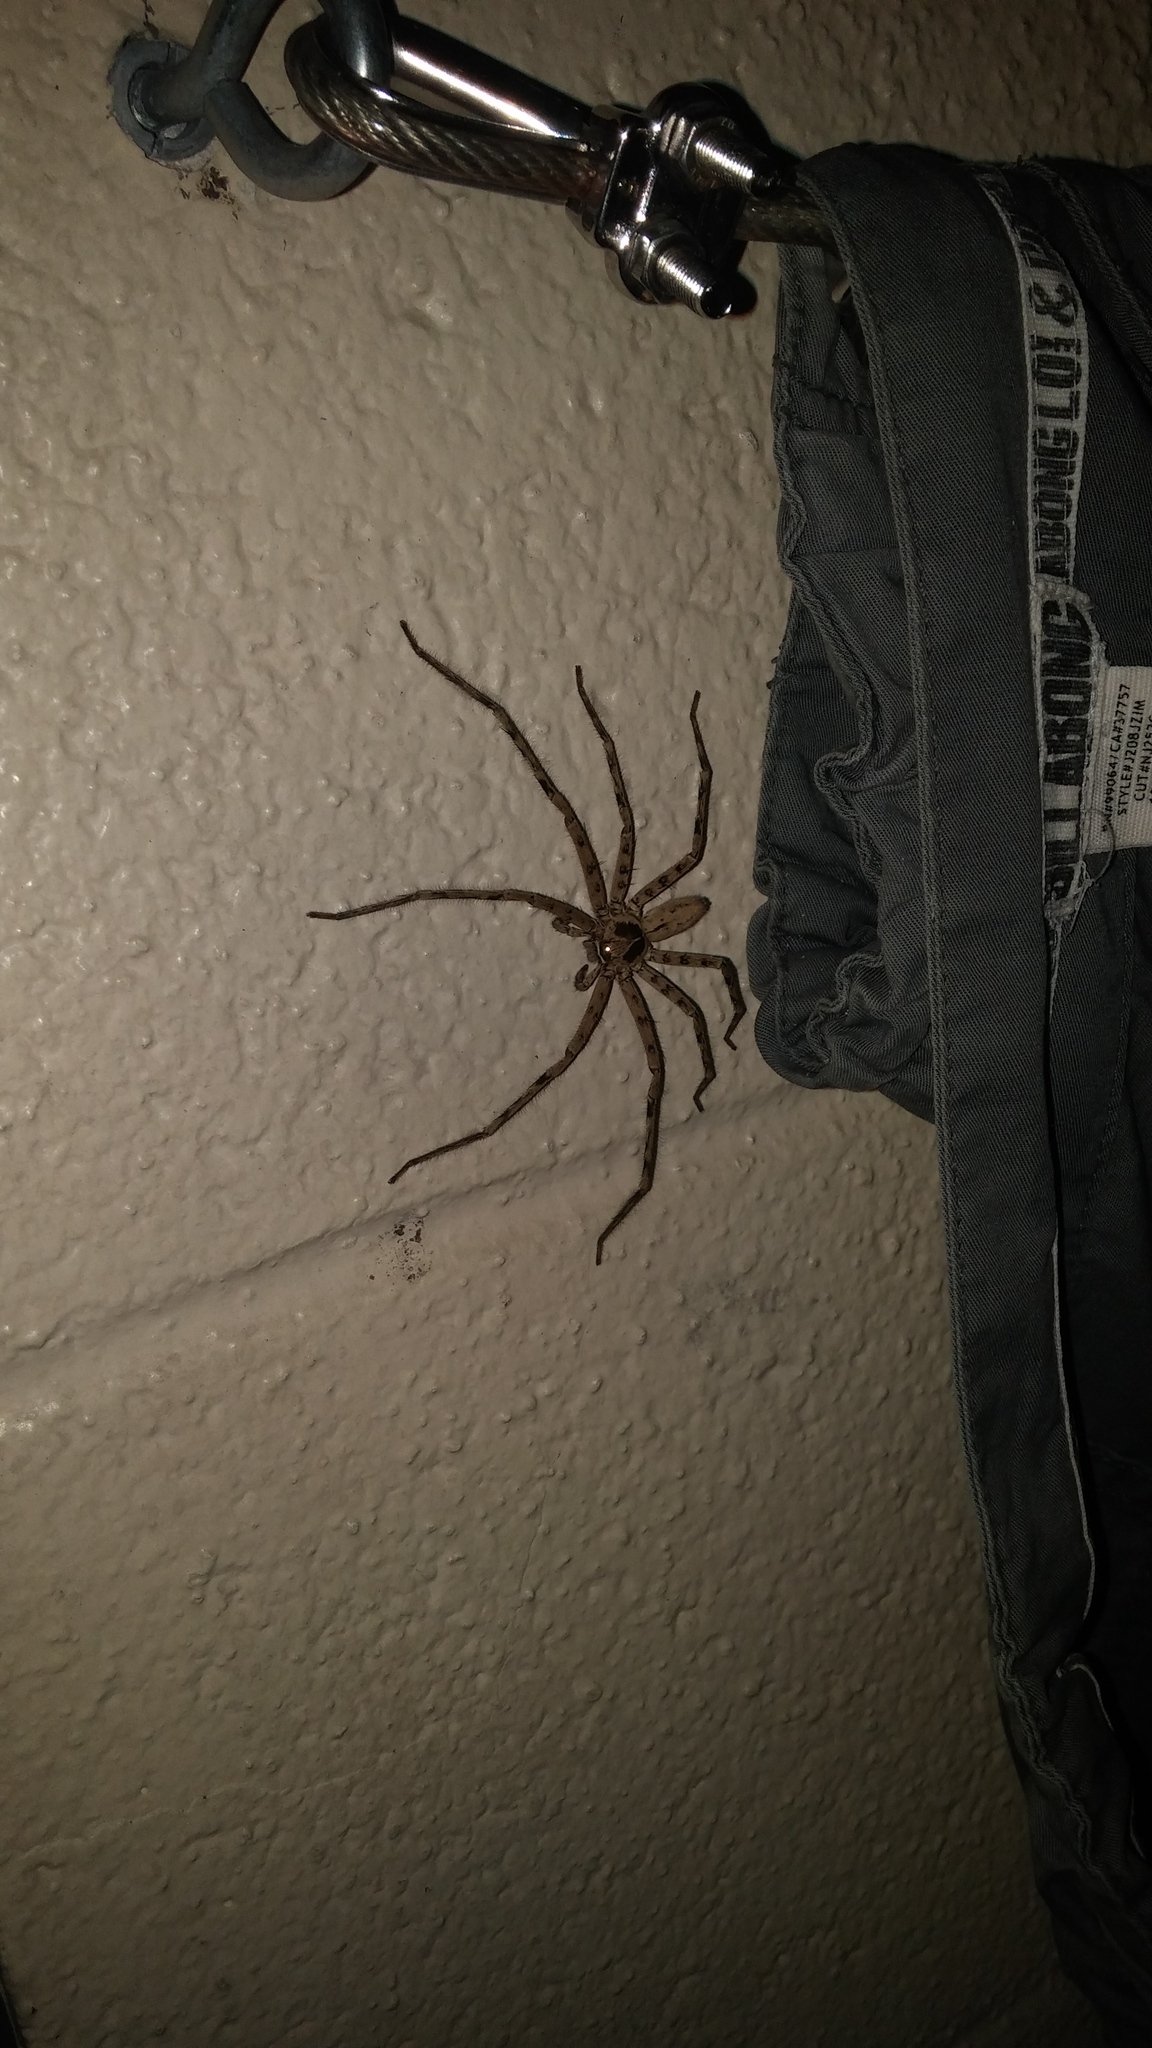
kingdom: Animalia
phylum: Arthropoda
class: Arachnida
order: Araneae
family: Sparassidae
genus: Heteropoda
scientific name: Heteropoda venatoria
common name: Huntsman spider
